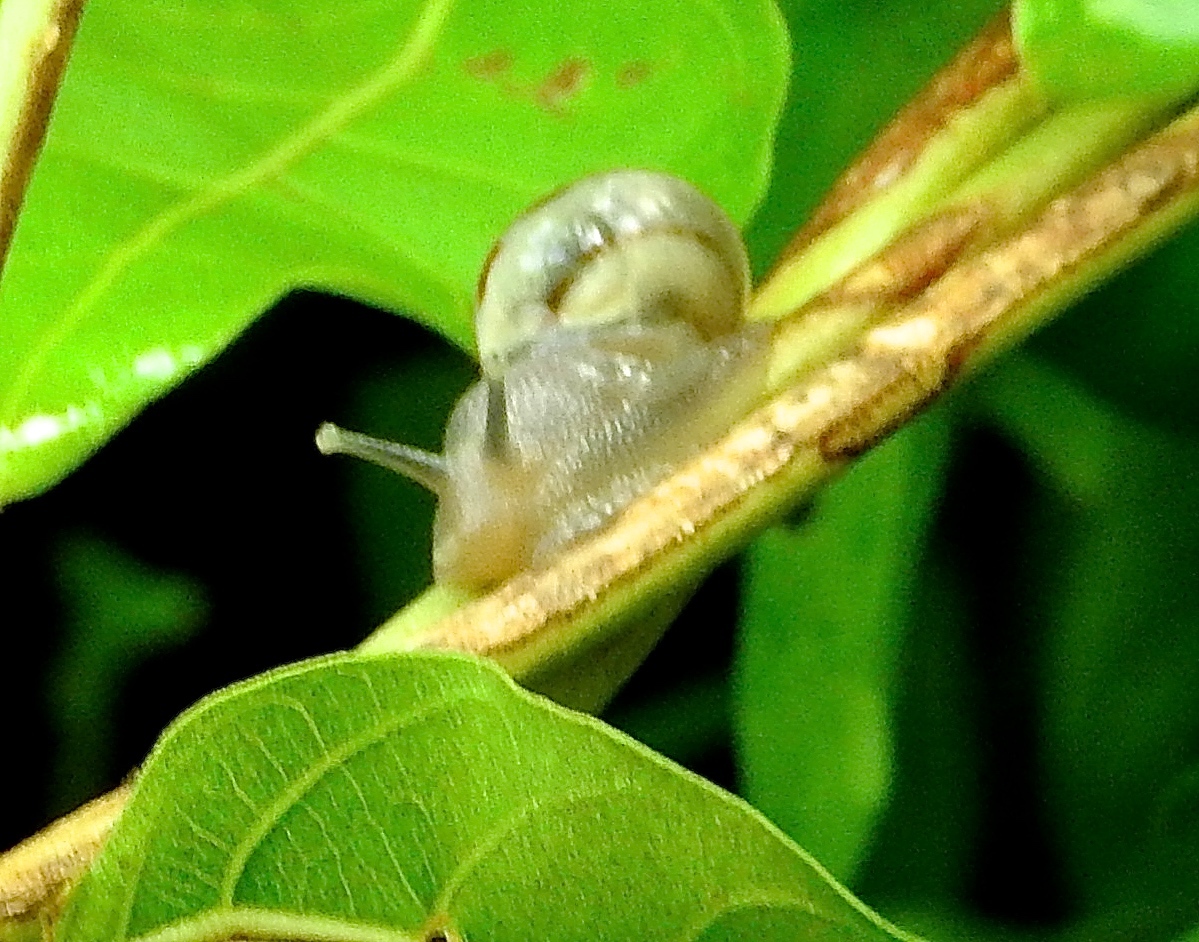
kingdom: Animalia
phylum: Mollusca
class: Gastropoda
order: Stylommatophora
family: Orthalicidae
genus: Orthalicus
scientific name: Orthalicus
